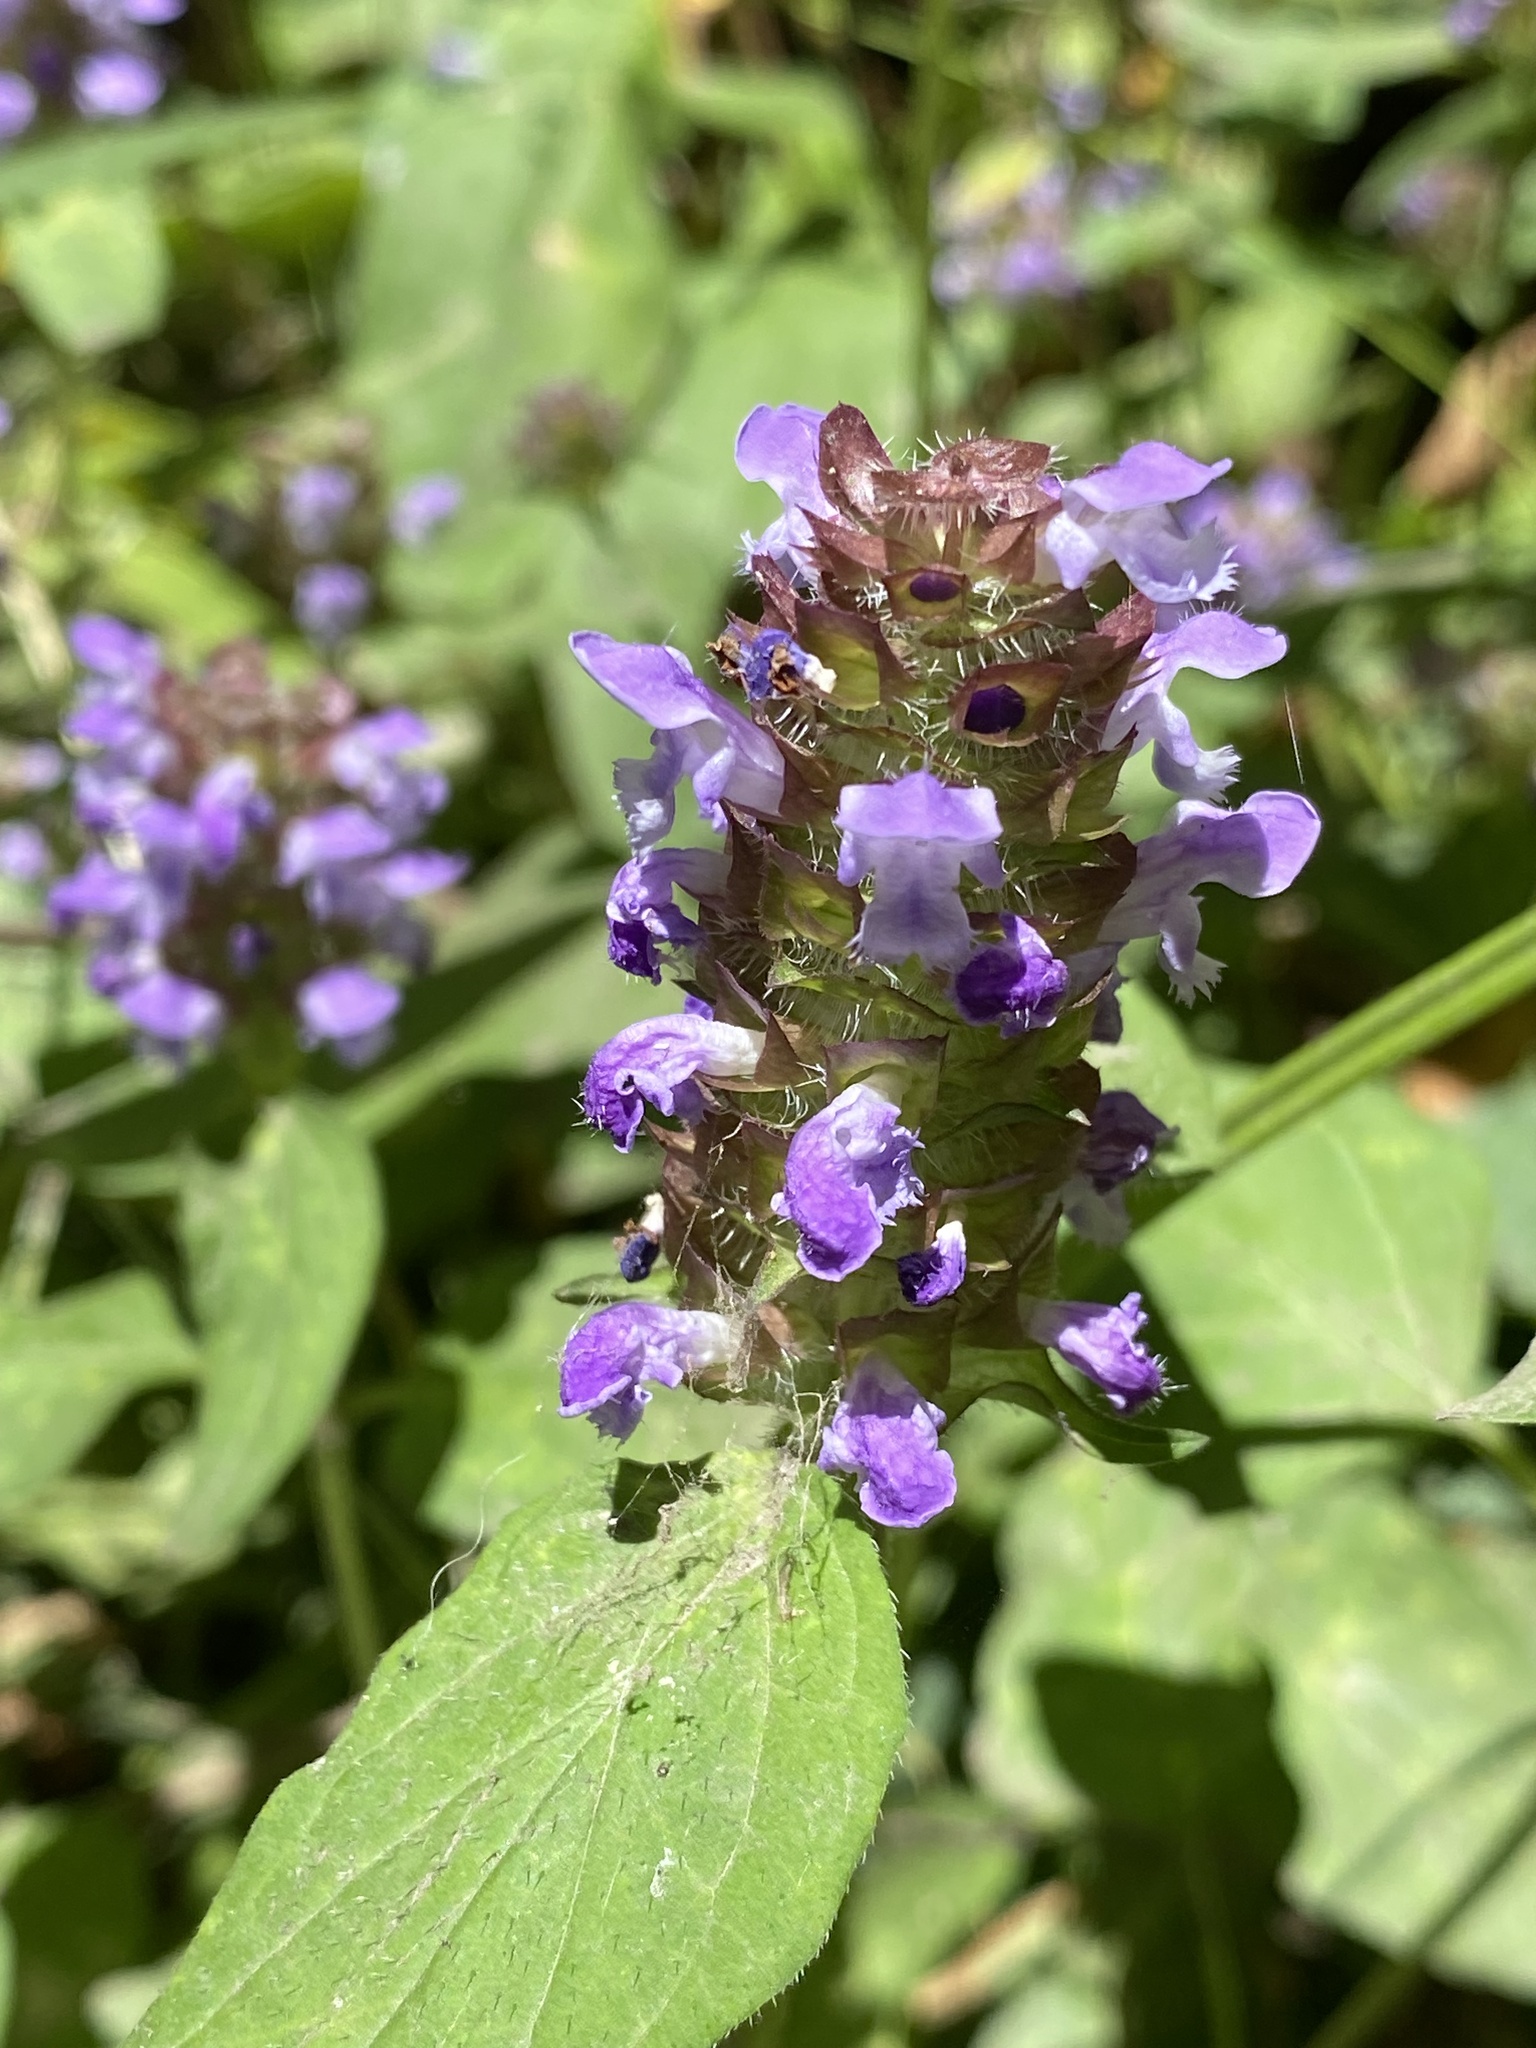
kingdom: Plantae
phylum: Tracheophyta
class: Magnoliopsida
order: Lamiales
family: Lamiaceae
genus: Prunella
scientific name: Prunella vulgaris
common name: Heal-all
